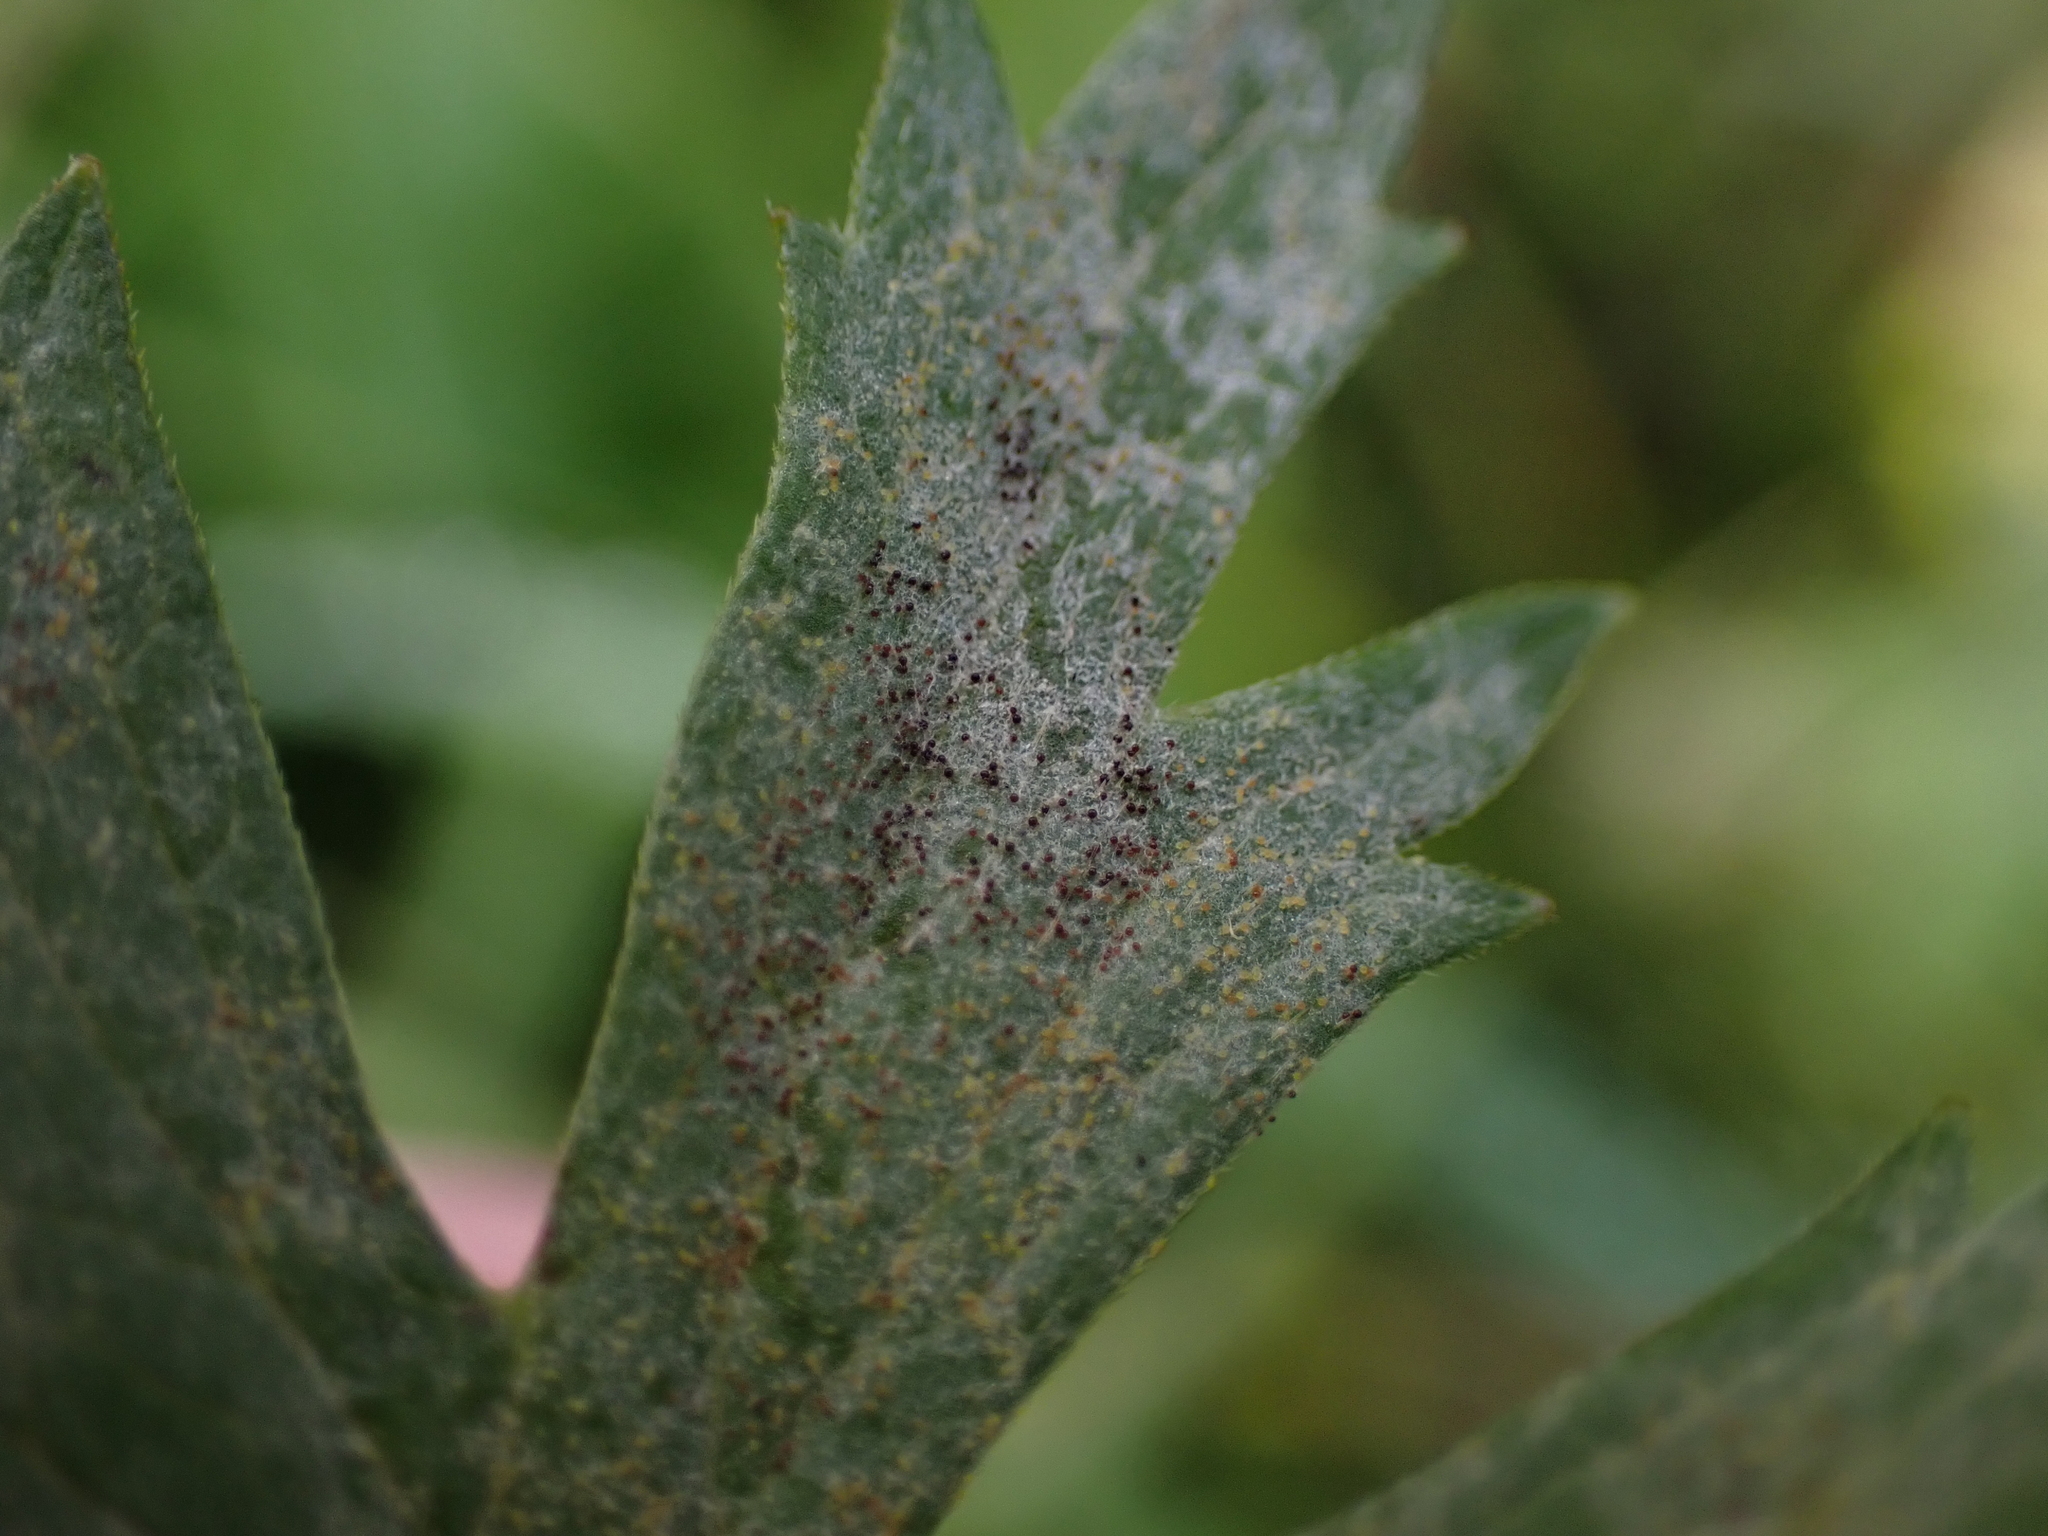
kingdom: Fungi
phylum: Ascomycota
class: Leotiomycetes
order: Helotiales
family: Erysiphaceae
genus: Erysiphe
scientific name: Erysiphe aquilegiae
